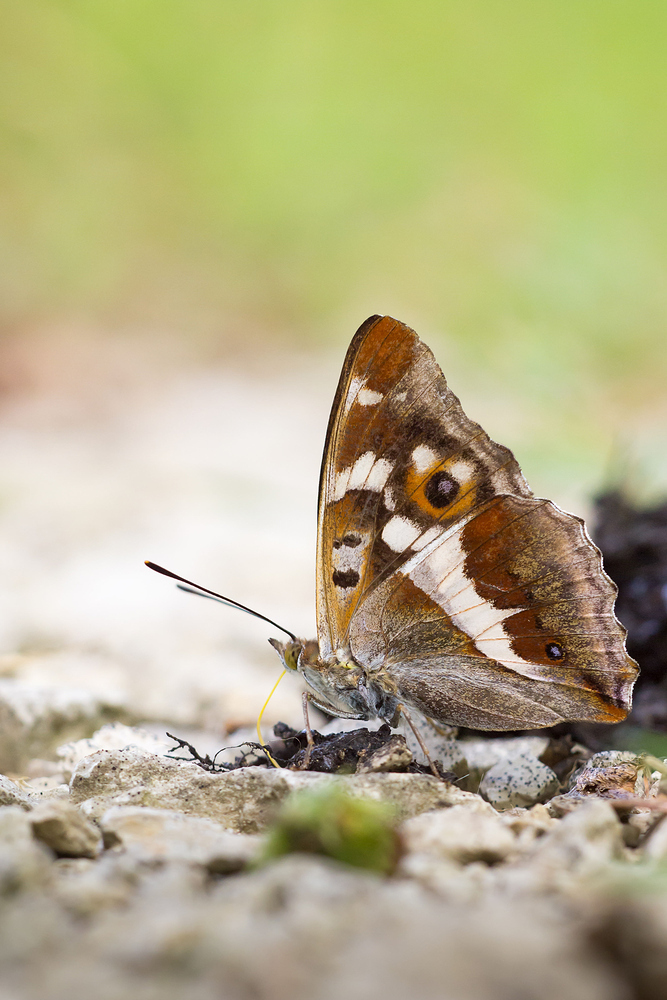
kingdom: Animalia
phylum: Arthropoda
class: Insecta
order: Lepidoptera
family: Nymphalidae
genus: Apatura
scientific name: Apatura iris
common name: Purple emperor
